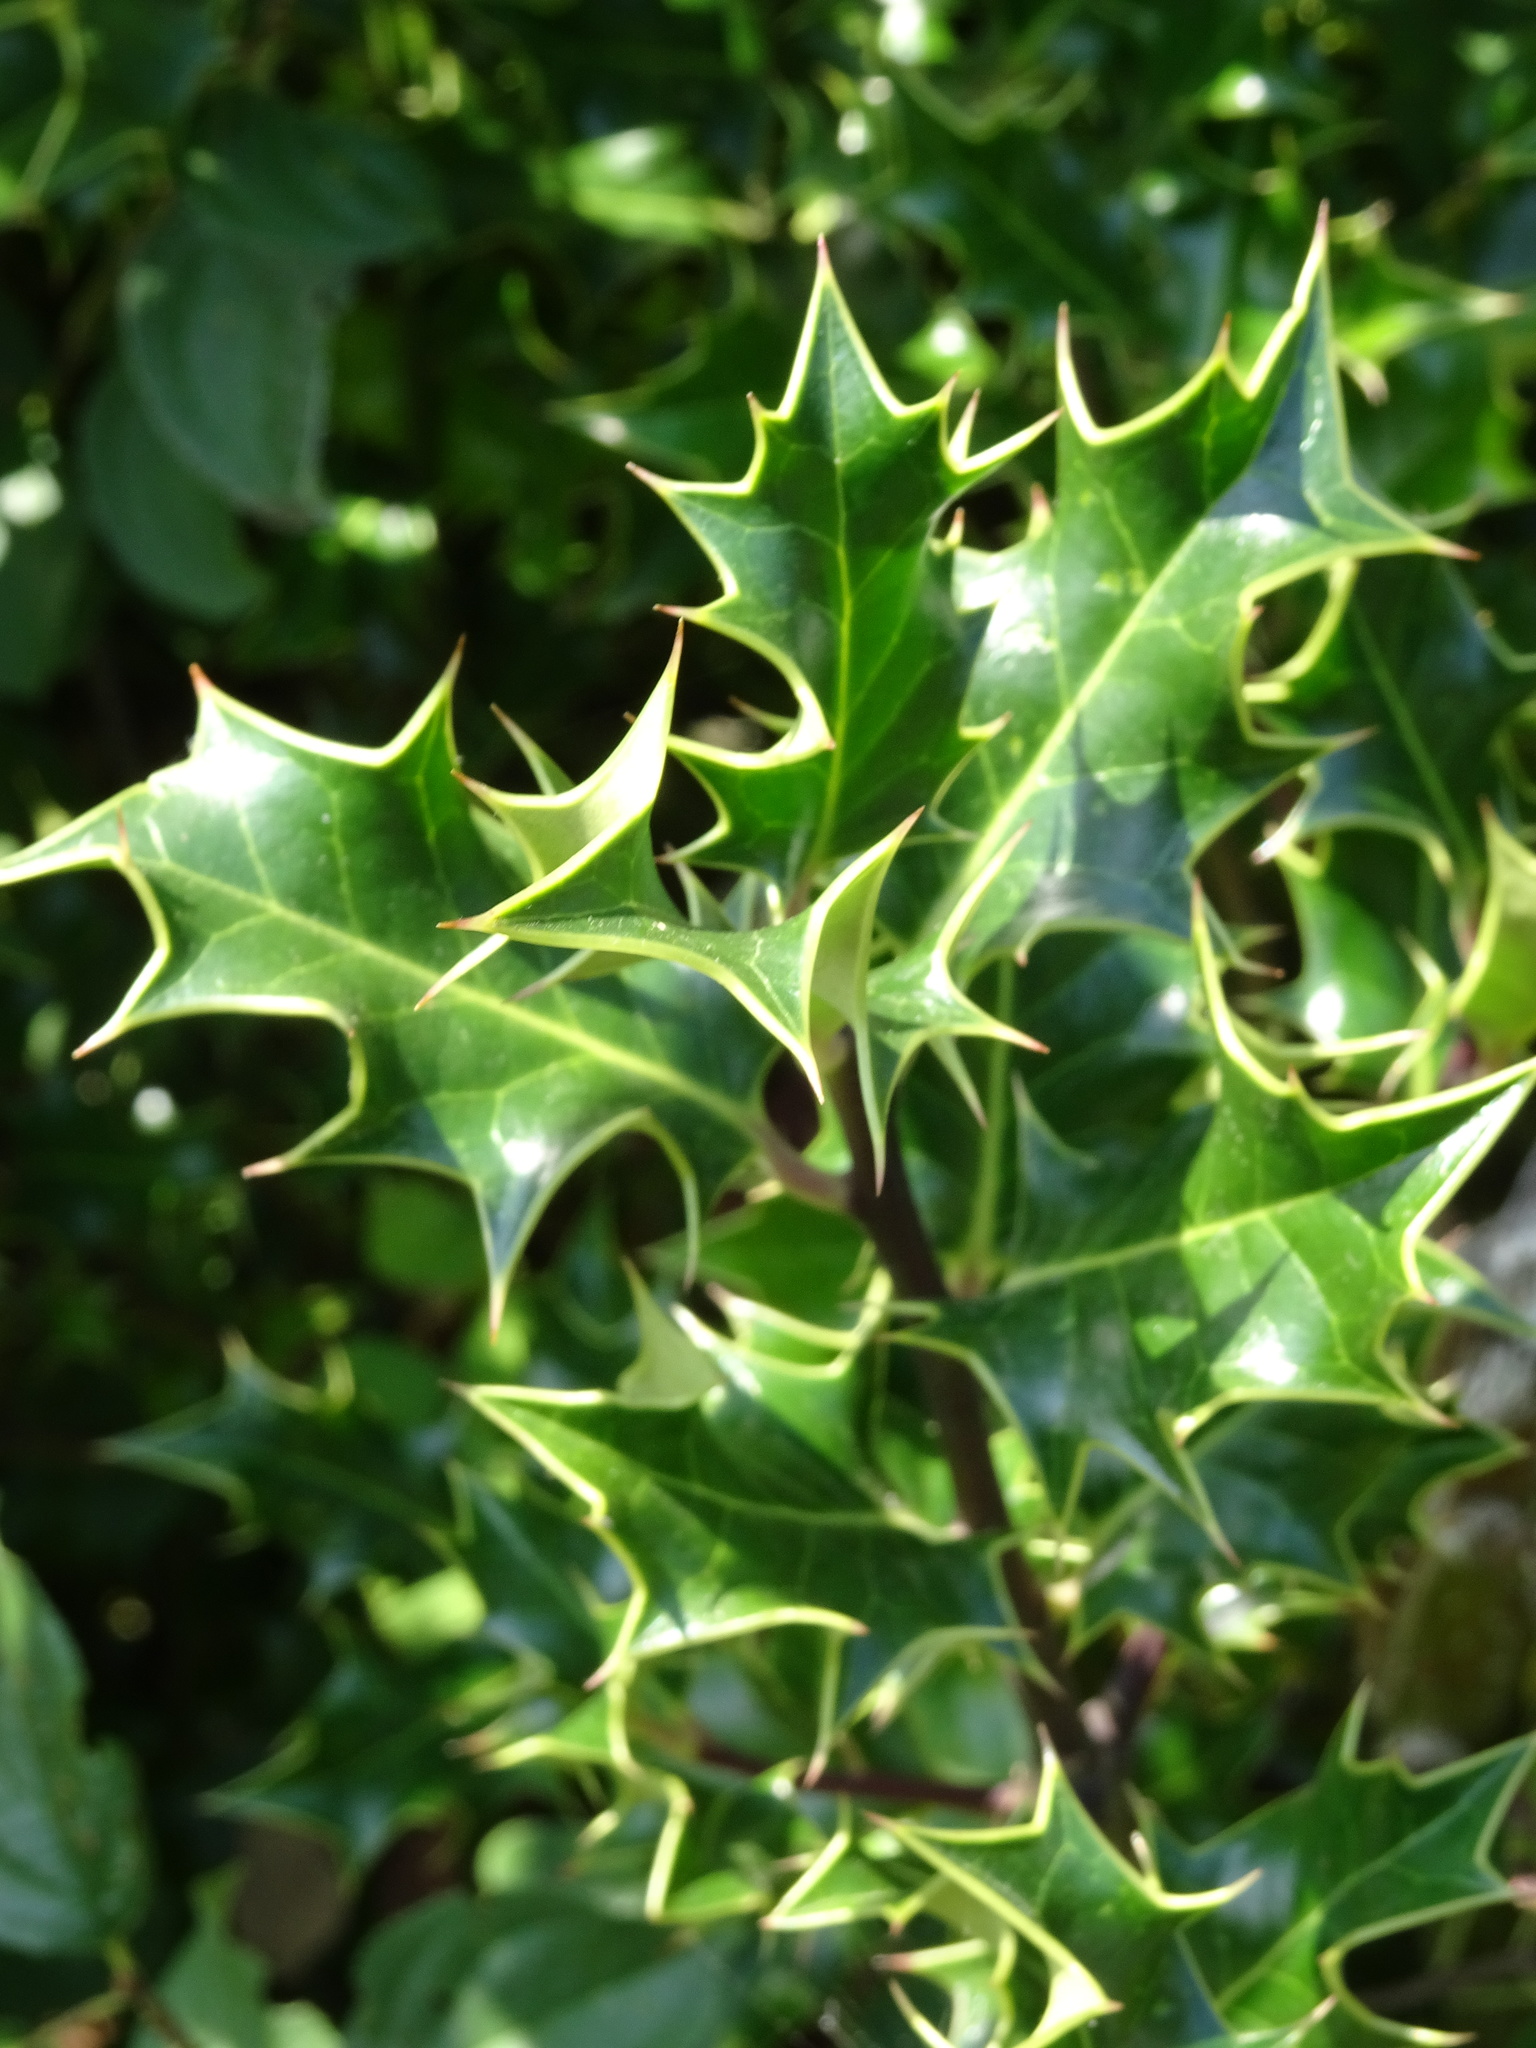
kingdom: Plantae
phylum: Tracheophyta
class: Magnoliopsida
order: Aquifoliales
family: Aquifoliaceae
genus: Ilex
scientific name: Ilex aquifolium
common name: English holly
